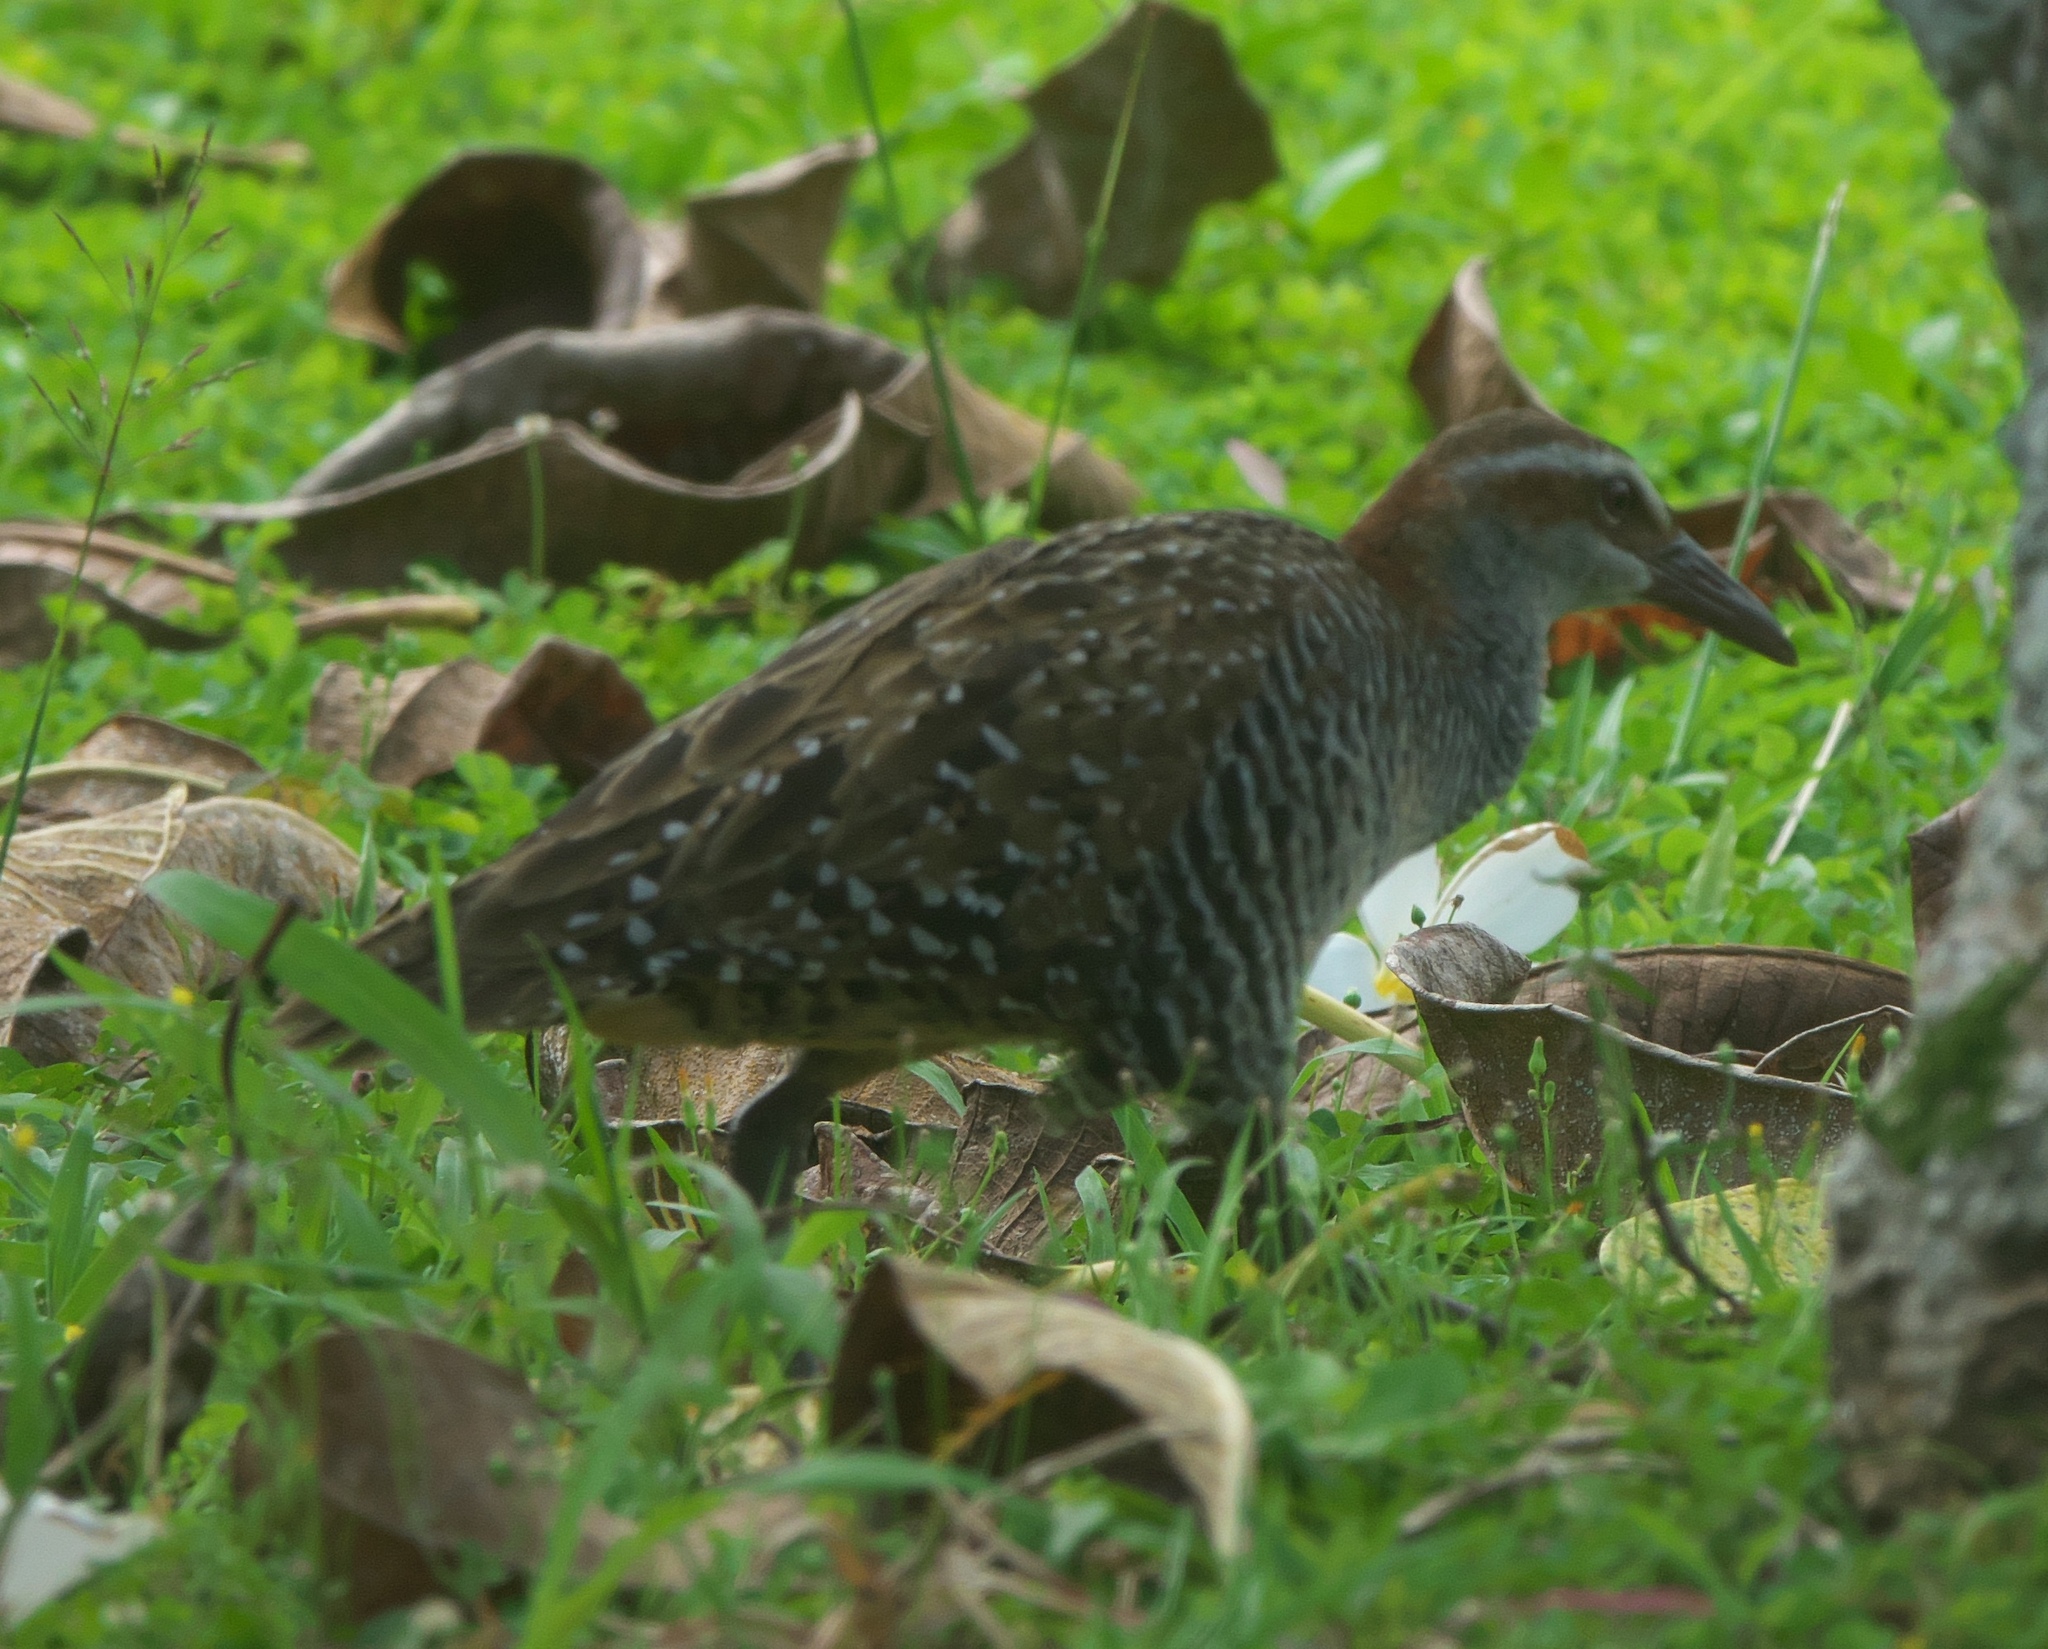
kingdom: Animalia
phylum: Chordata
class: Aves
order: Gruiformes
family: Rallidae
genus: Gallirallus
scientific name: Gallirallus philippensis
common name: Buff-banded rail
